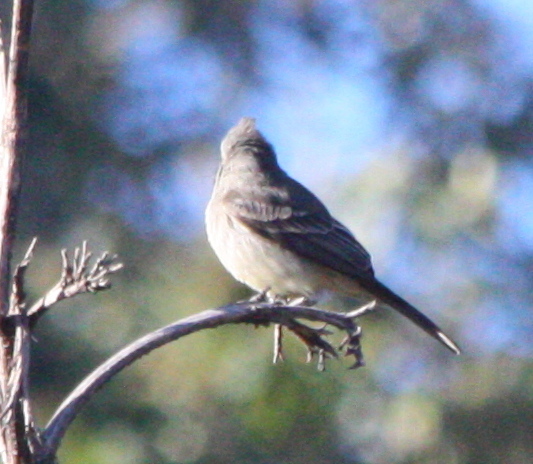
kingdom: Animalia
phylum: Chordata
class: Aves
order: Passeriformes
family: Tyrannidae
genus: Contopus
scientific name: Contopus pertinax
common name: Greater pewee
